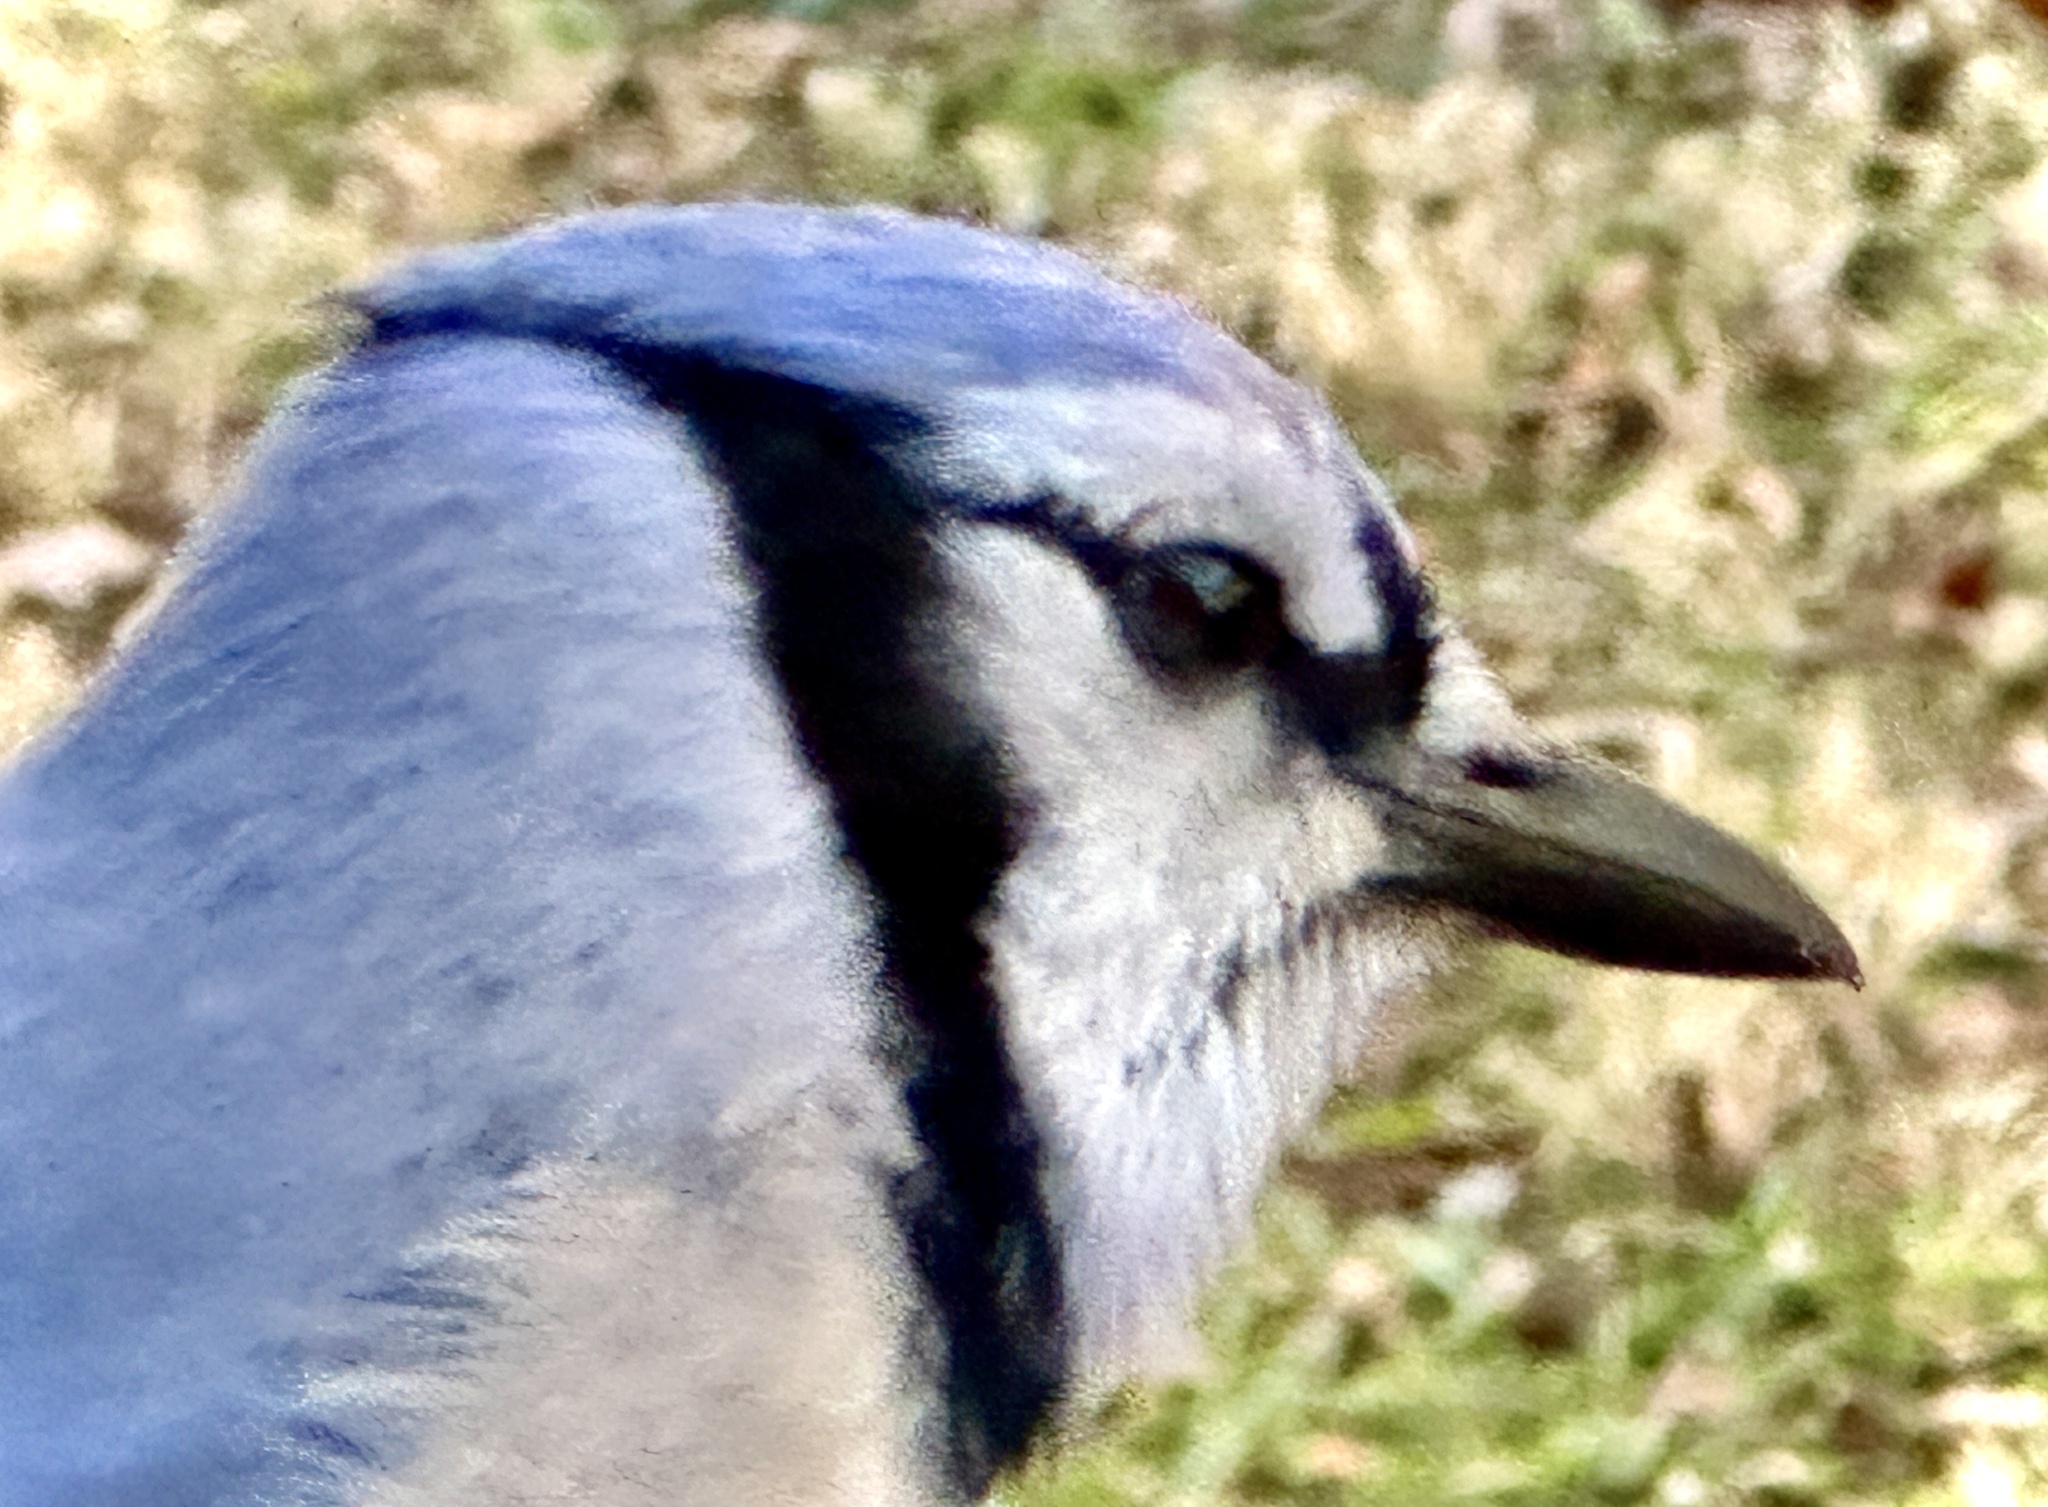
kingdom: Animalia
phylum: Chordata
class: Aves
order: Passeriformes
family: Corvidae
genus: Cyanocitta
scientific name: Cyanocitta cristata
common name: Blue jay
